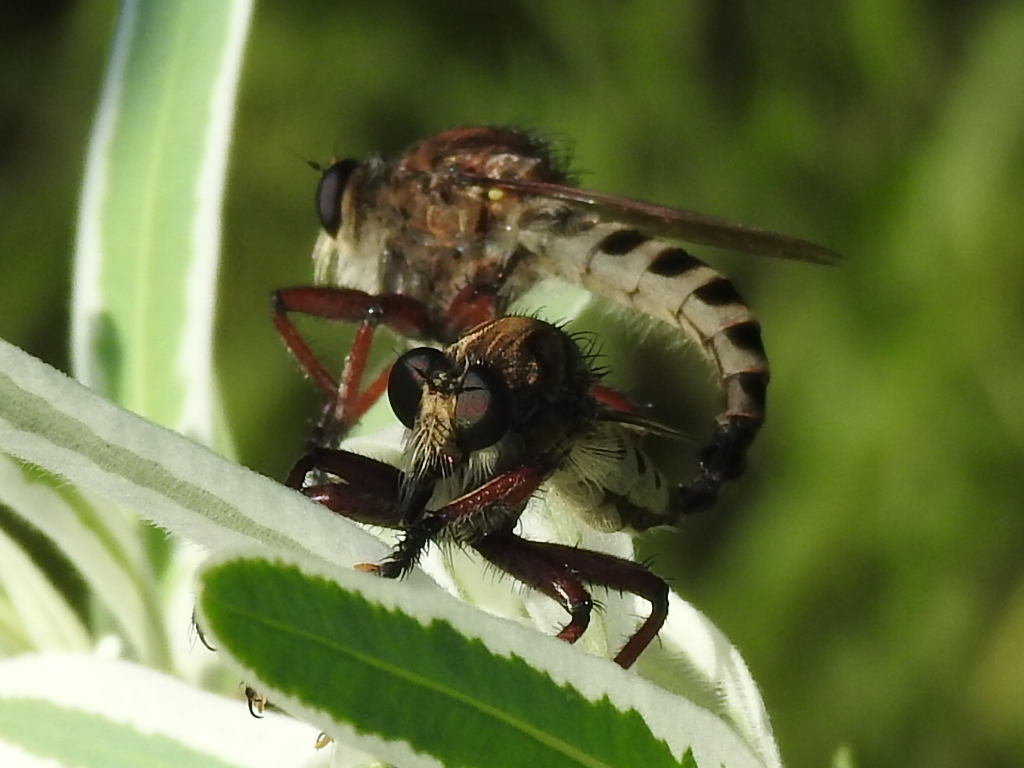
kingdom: Animalia
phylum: Arthropoda
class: Insecta
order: Diptera
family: Asilidae
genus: Promachus
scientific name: Promachus hinei
